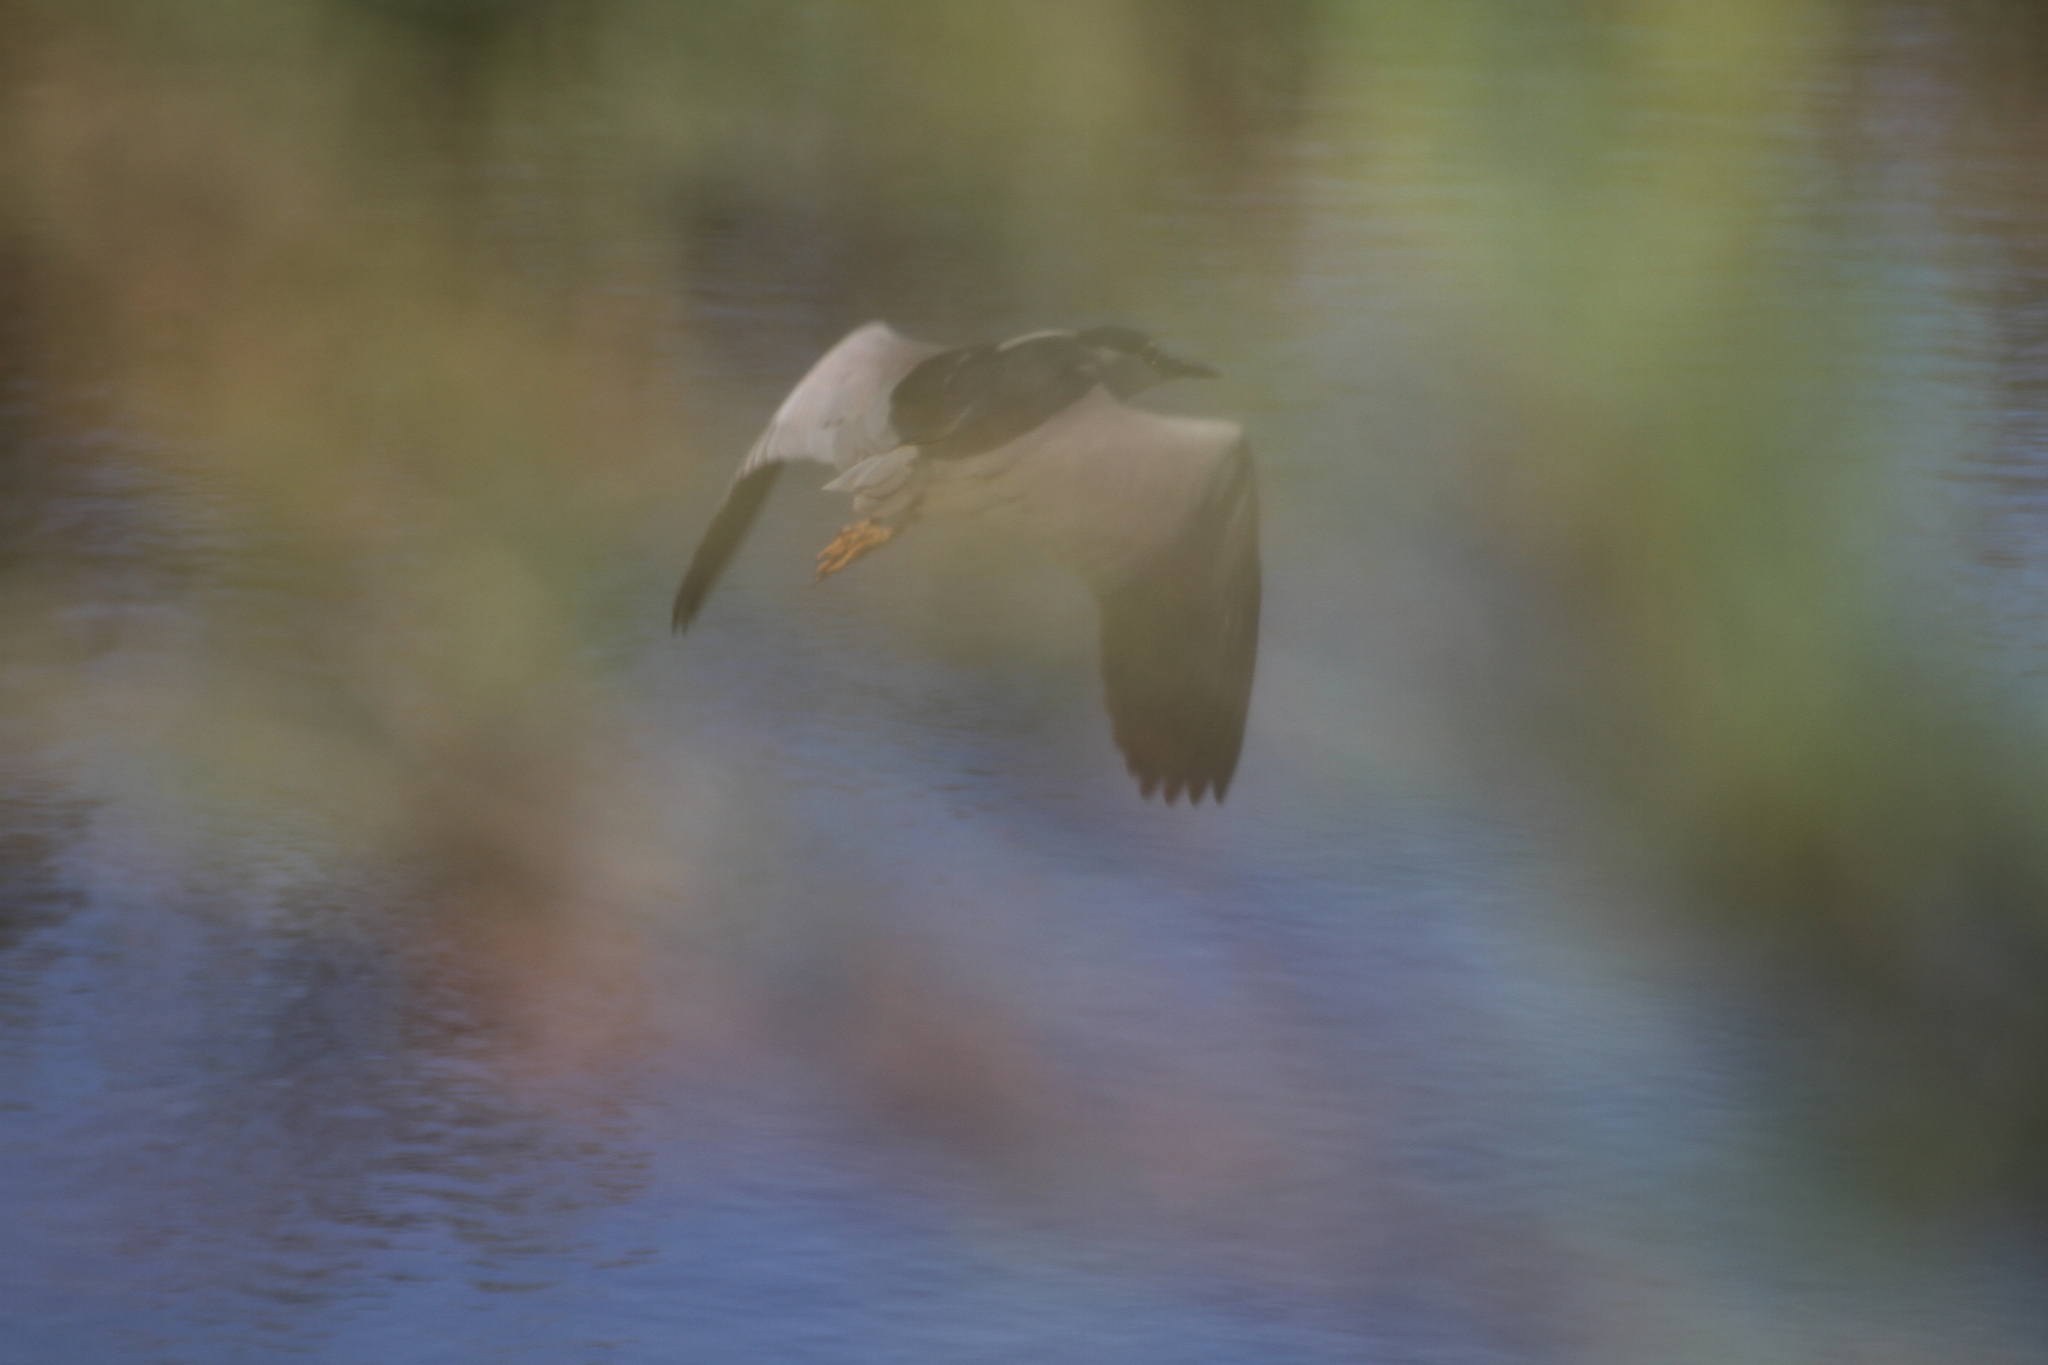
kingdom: Animalia
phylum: Chordata
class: Aves
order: Pelecaniformes
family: Ardeidae
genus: Nycticorax
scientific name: Nycticorax nycticorax
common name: Black-crowned night heron
